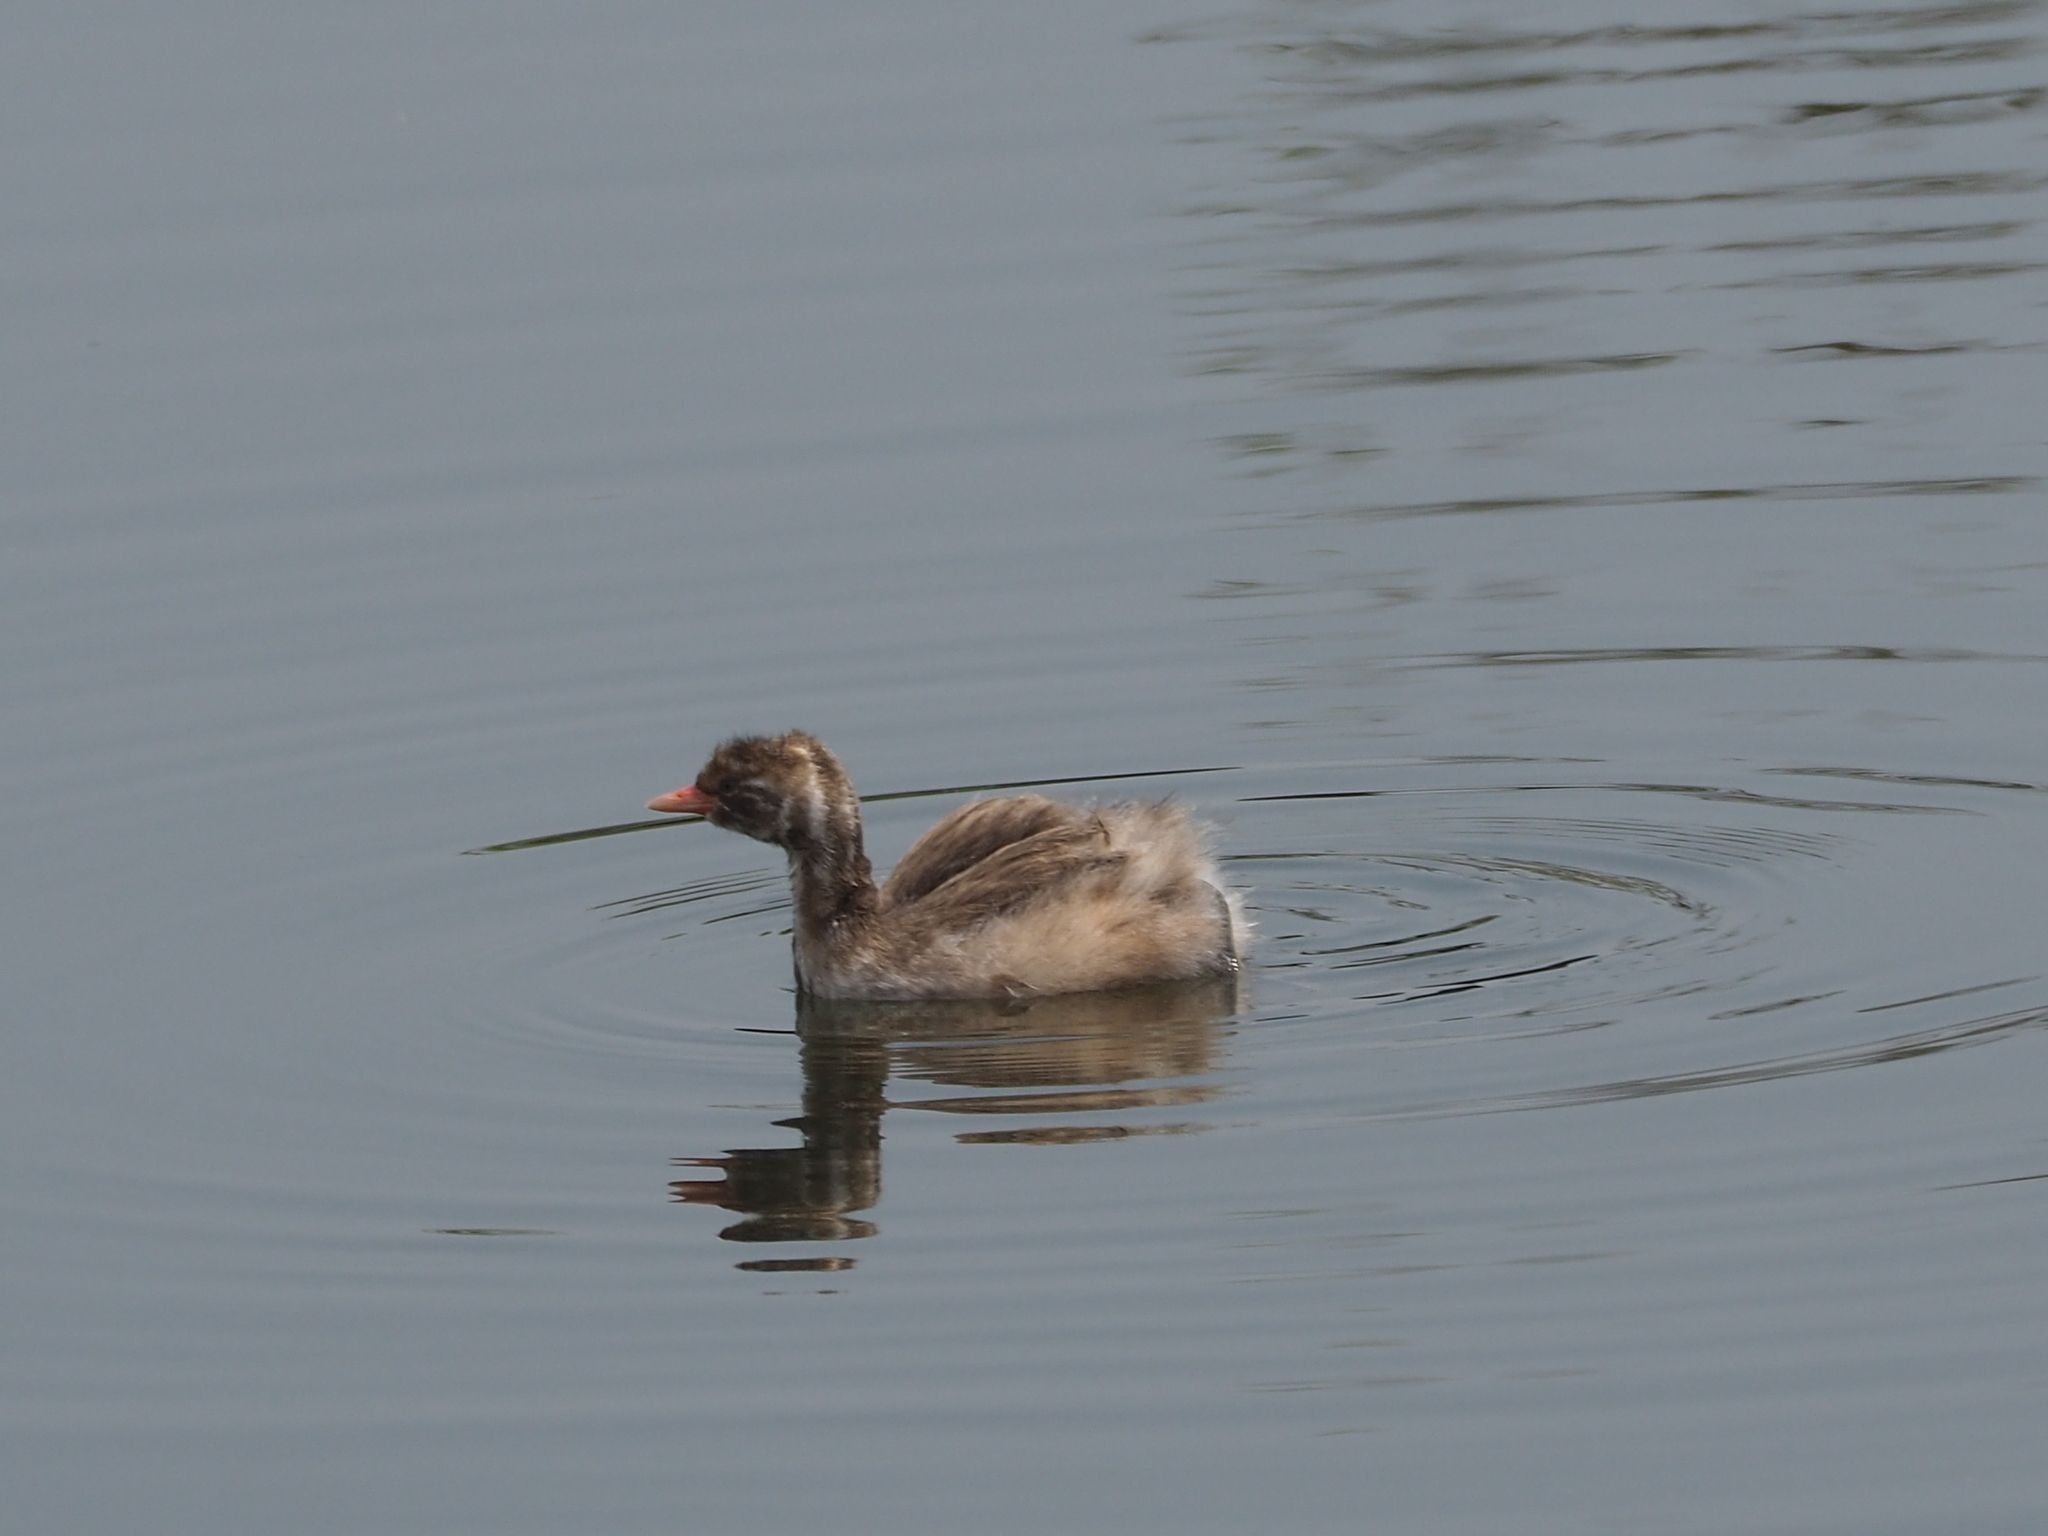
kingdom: Animalia
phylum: Chordata
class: Aves
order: Podicipediformes
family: Podicipedidae
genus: Tachybaptus
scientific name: Tachybaptus ruficollis
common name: Little grebe
